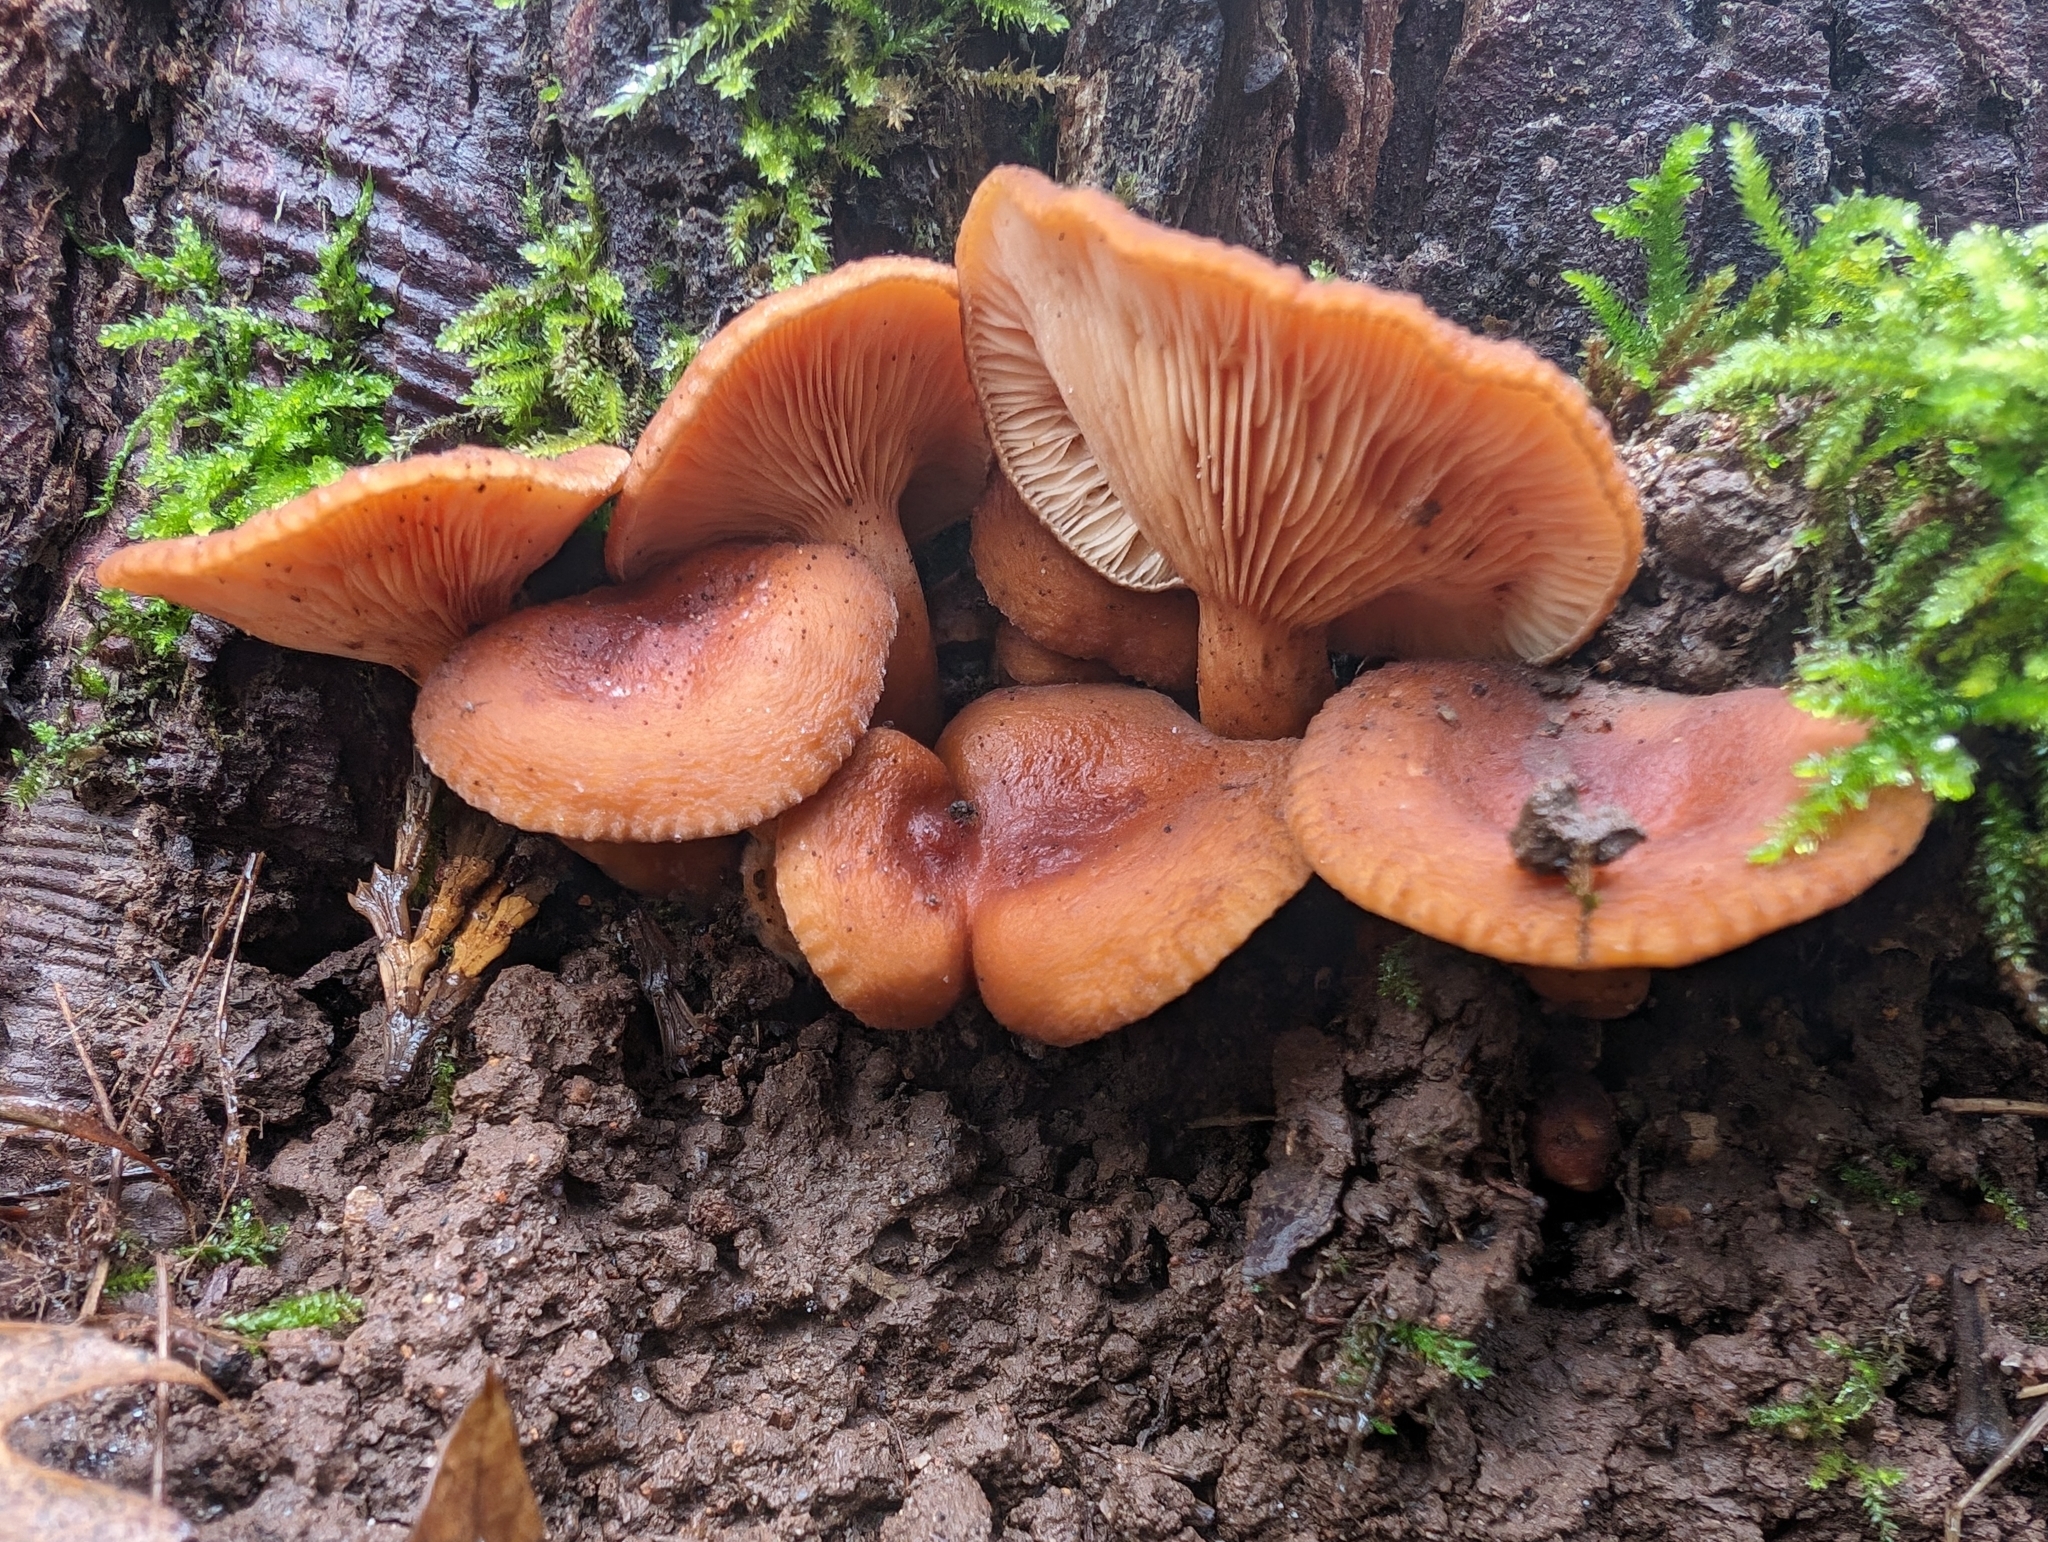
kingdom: Fungi
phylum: Basidiomycota
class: Agaricomycetes
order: Russulales
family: Russulaceae
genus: Lactarius
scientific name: Lactarius rubidus
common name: Candy cap
